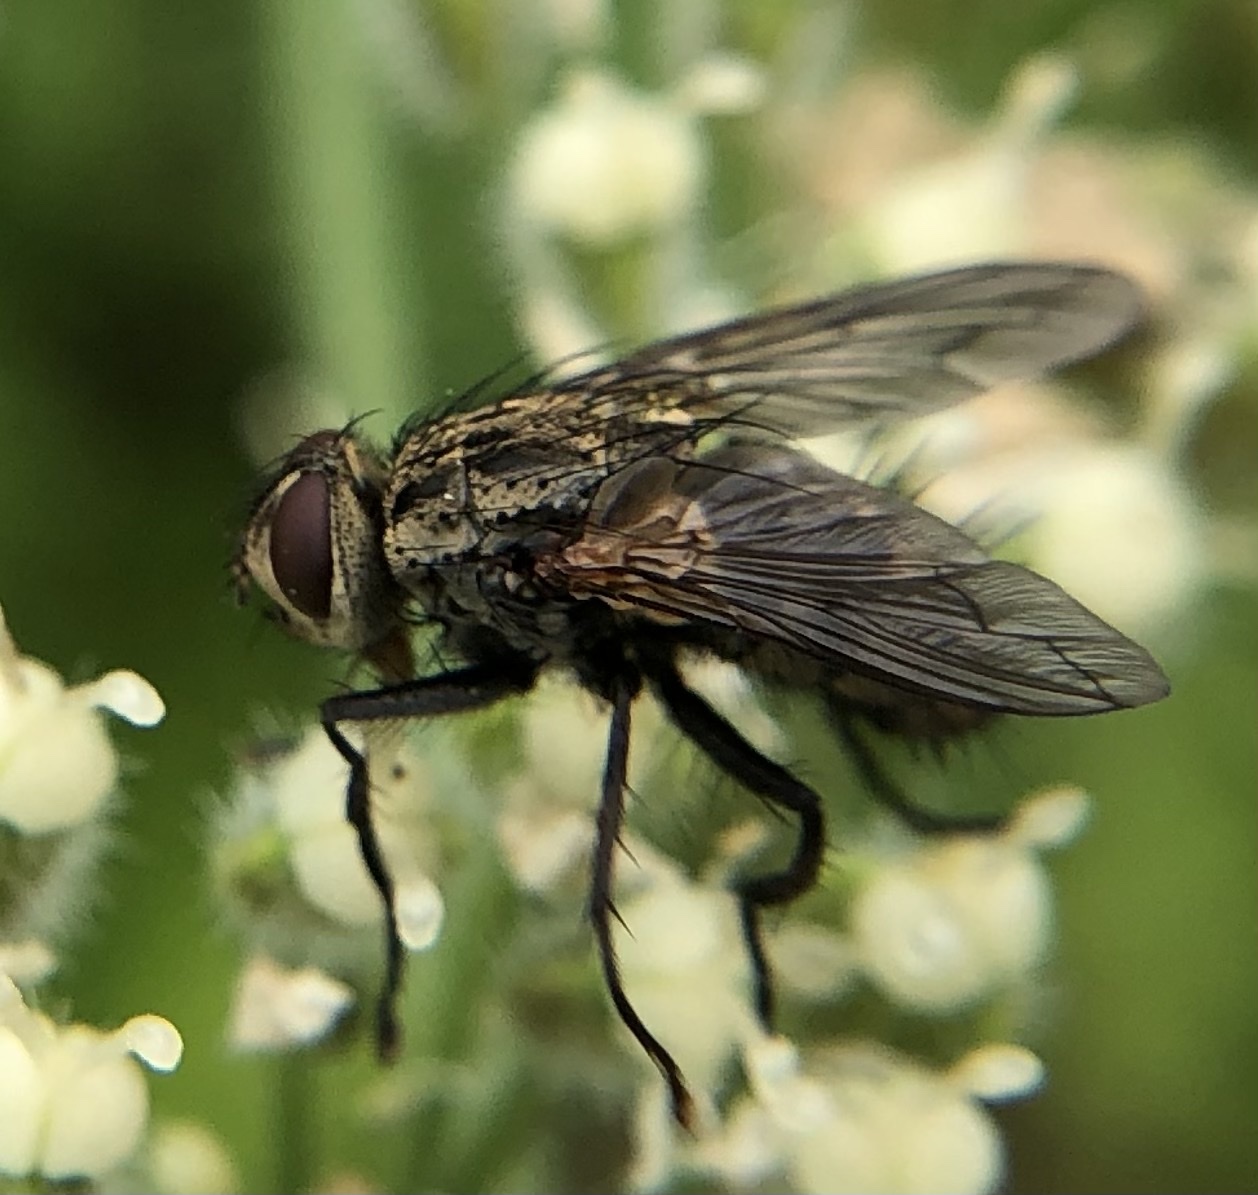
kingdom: Animalia
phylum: Arthropoda
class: Insecta
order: Diptera
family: Tachinidae
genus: Estheria
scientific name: Estheria cristata
